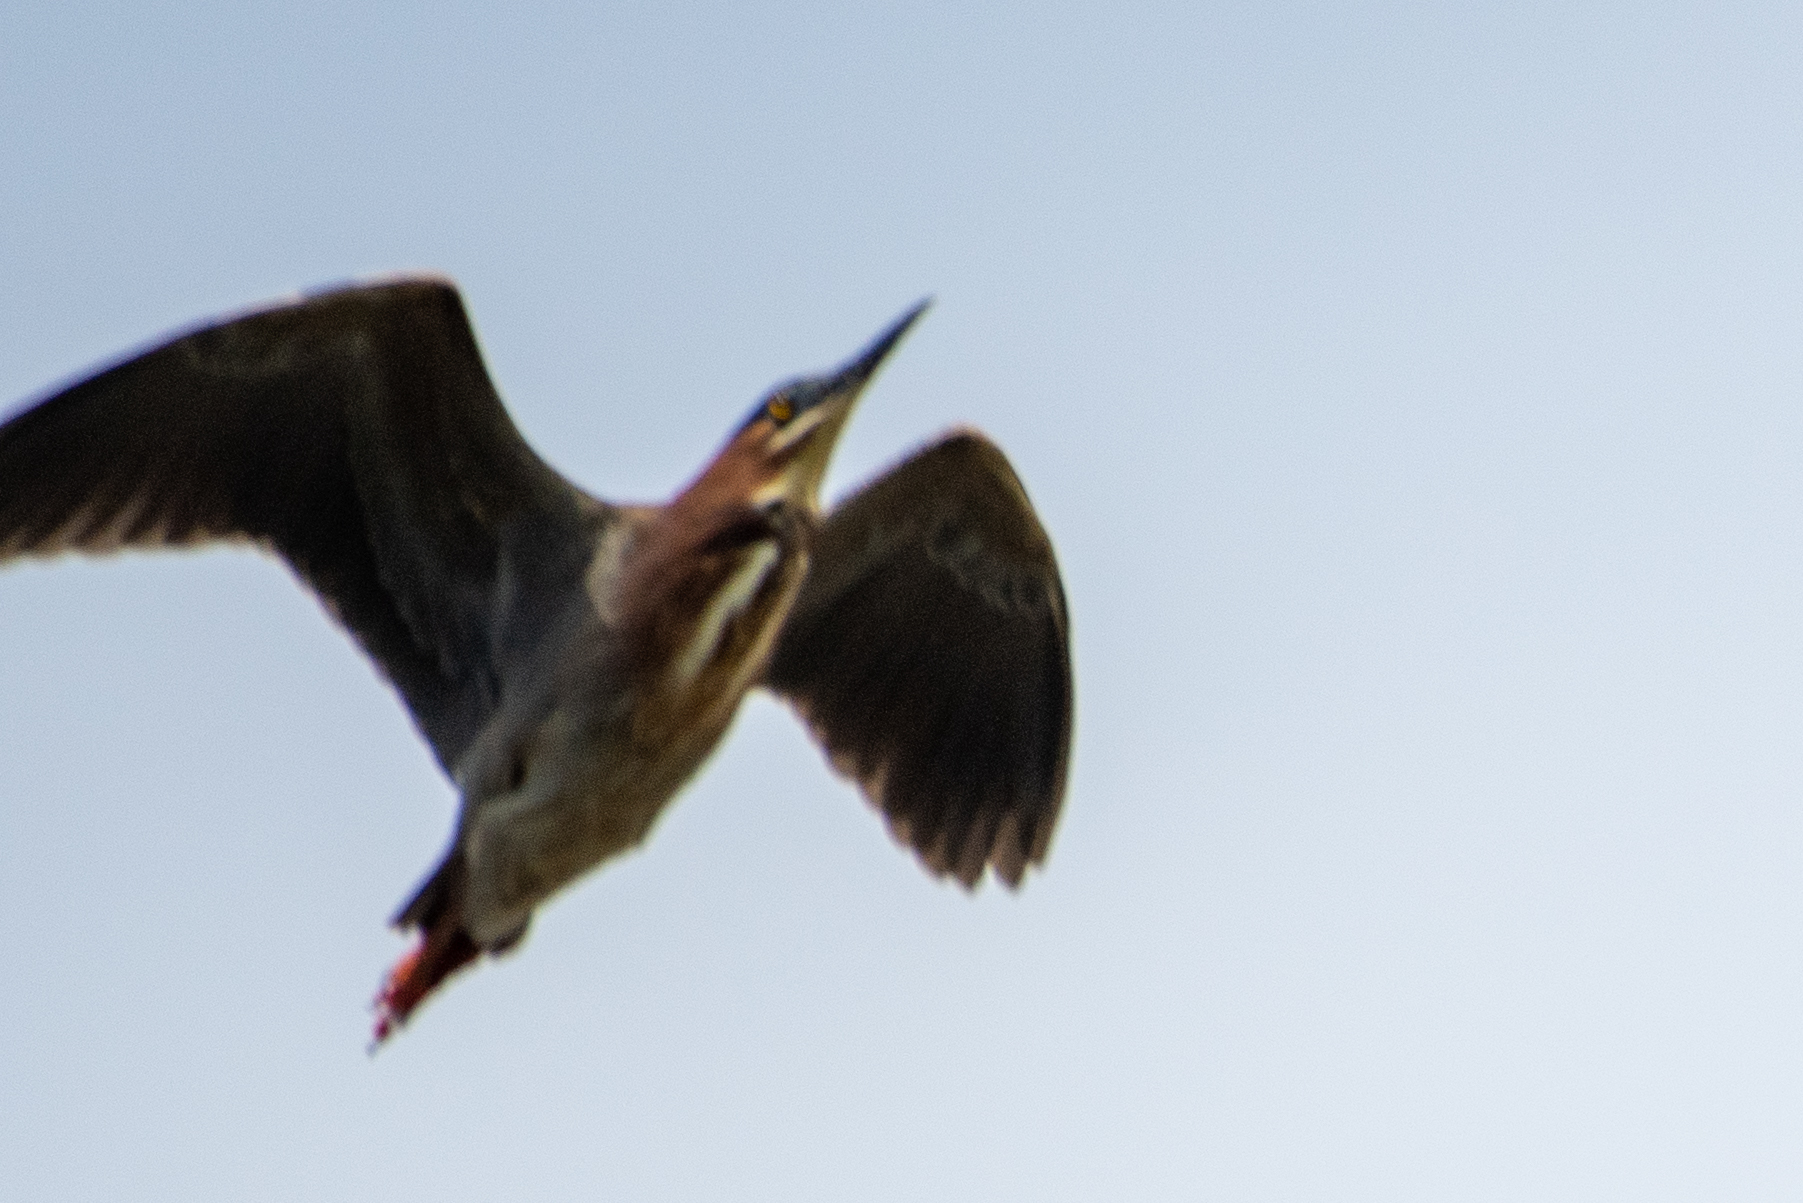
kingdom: Animalia
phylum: Chordata
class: Aves
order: Pelecaniformes
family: Ardeidae
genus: Butorides
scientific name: Butorides virescens
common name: Green heron
